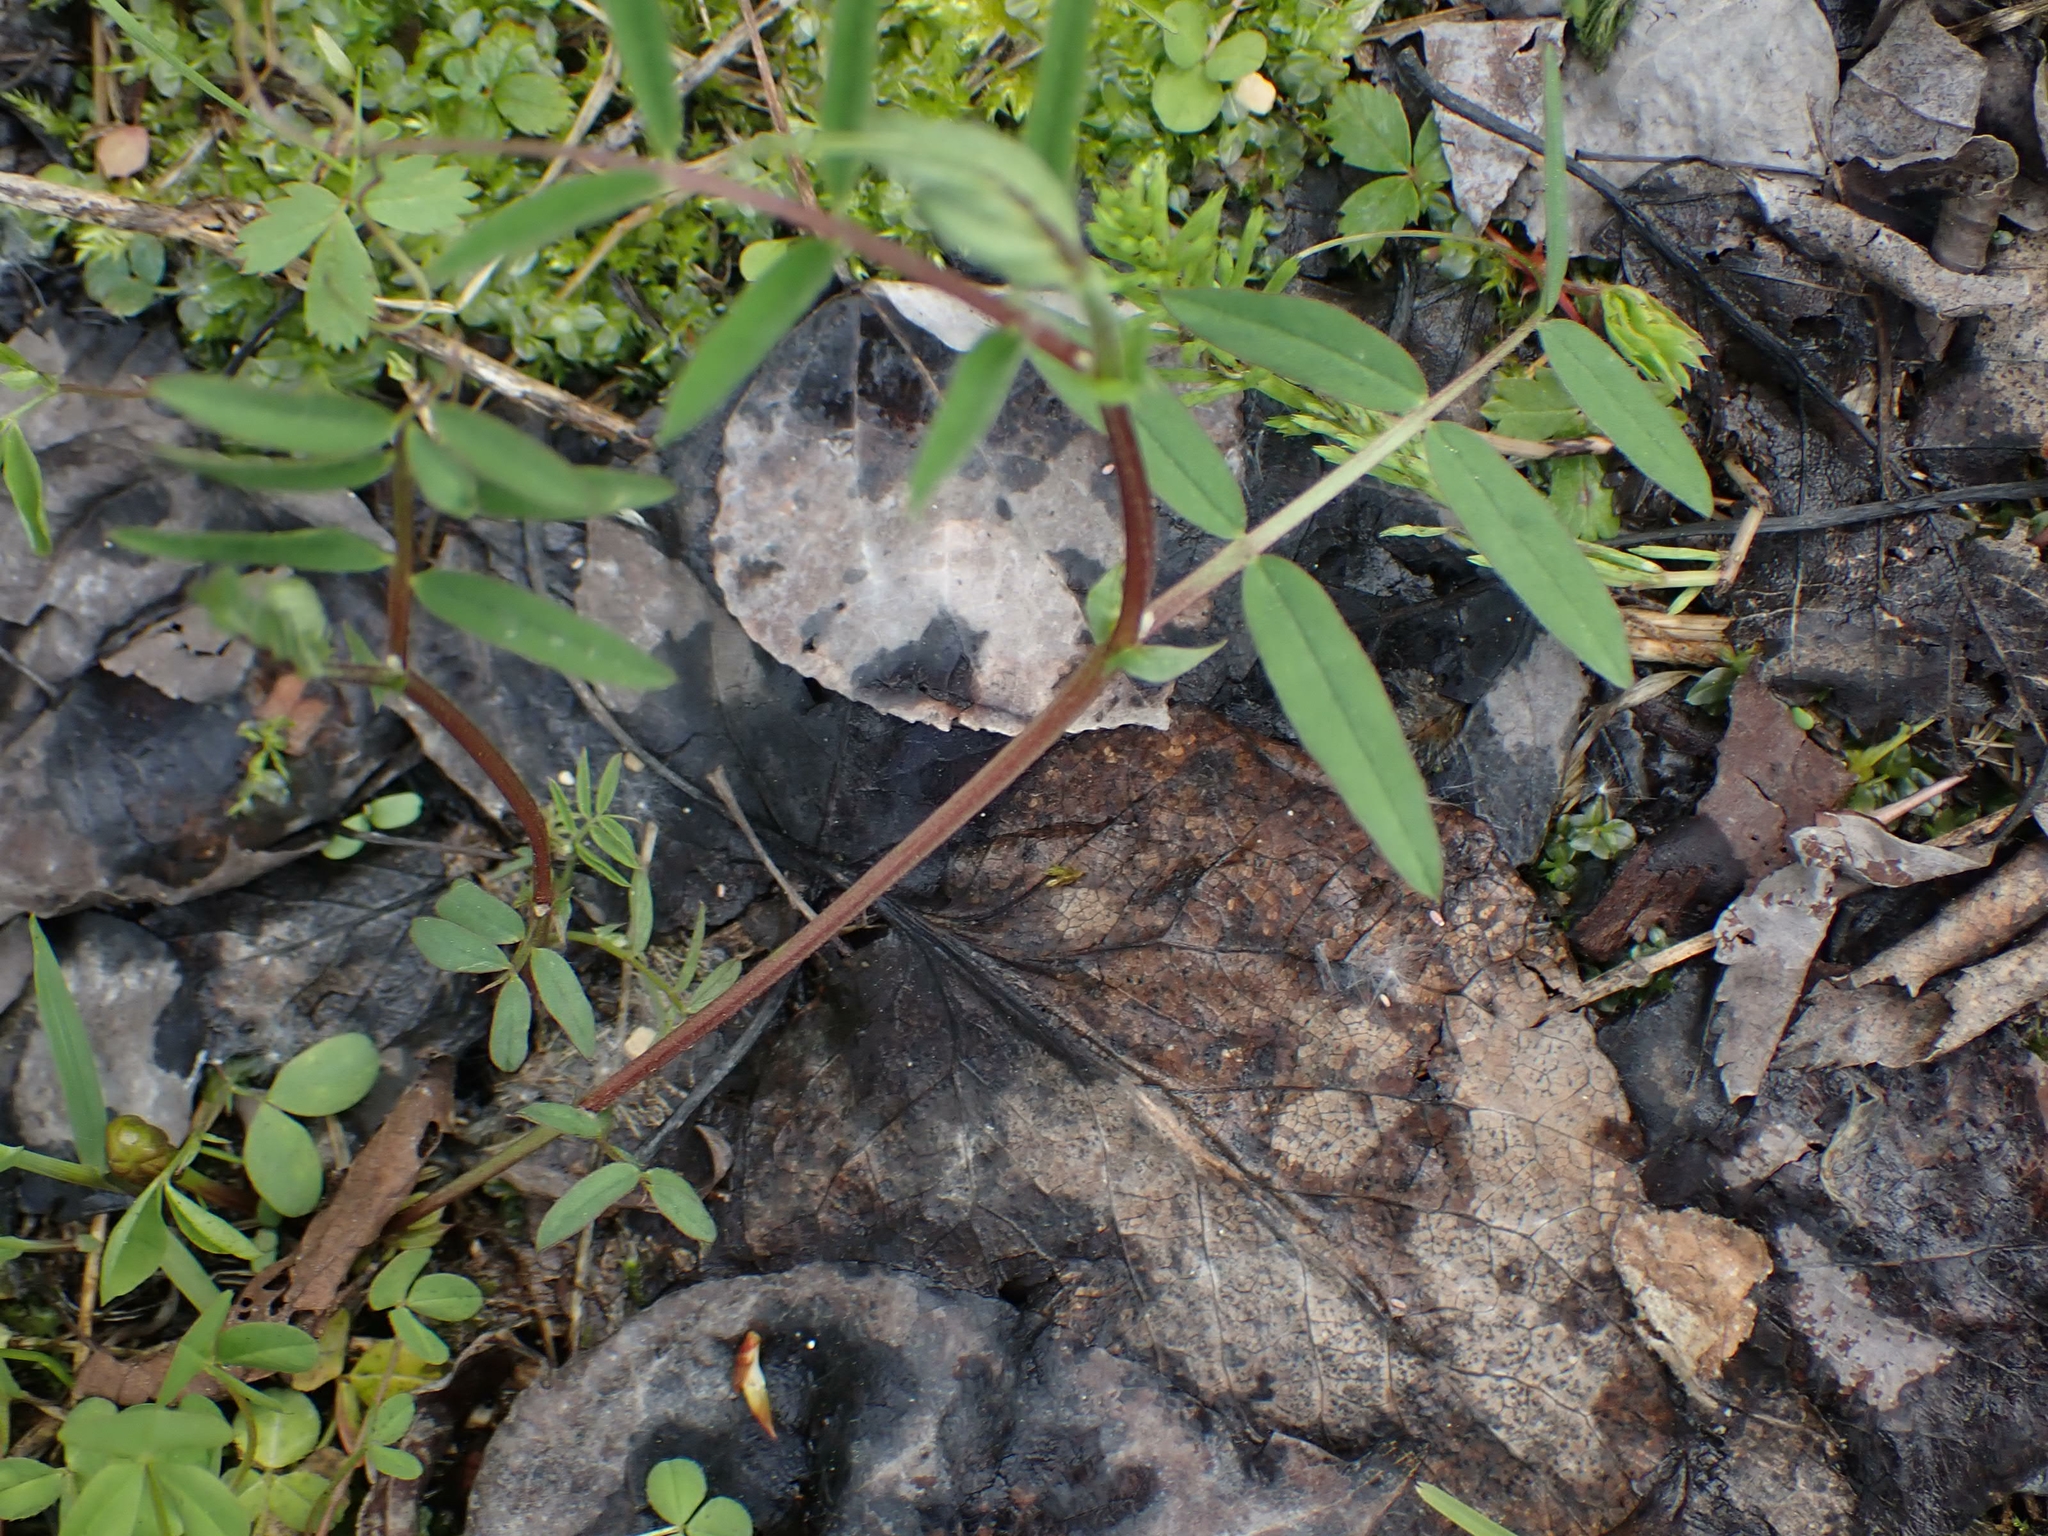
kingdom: Plantae
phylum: Tracheophyta
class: Magnoliopsida
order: Fabales
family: Fabaceae
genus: Vicia
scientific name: Vicia americana
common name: American vetch
